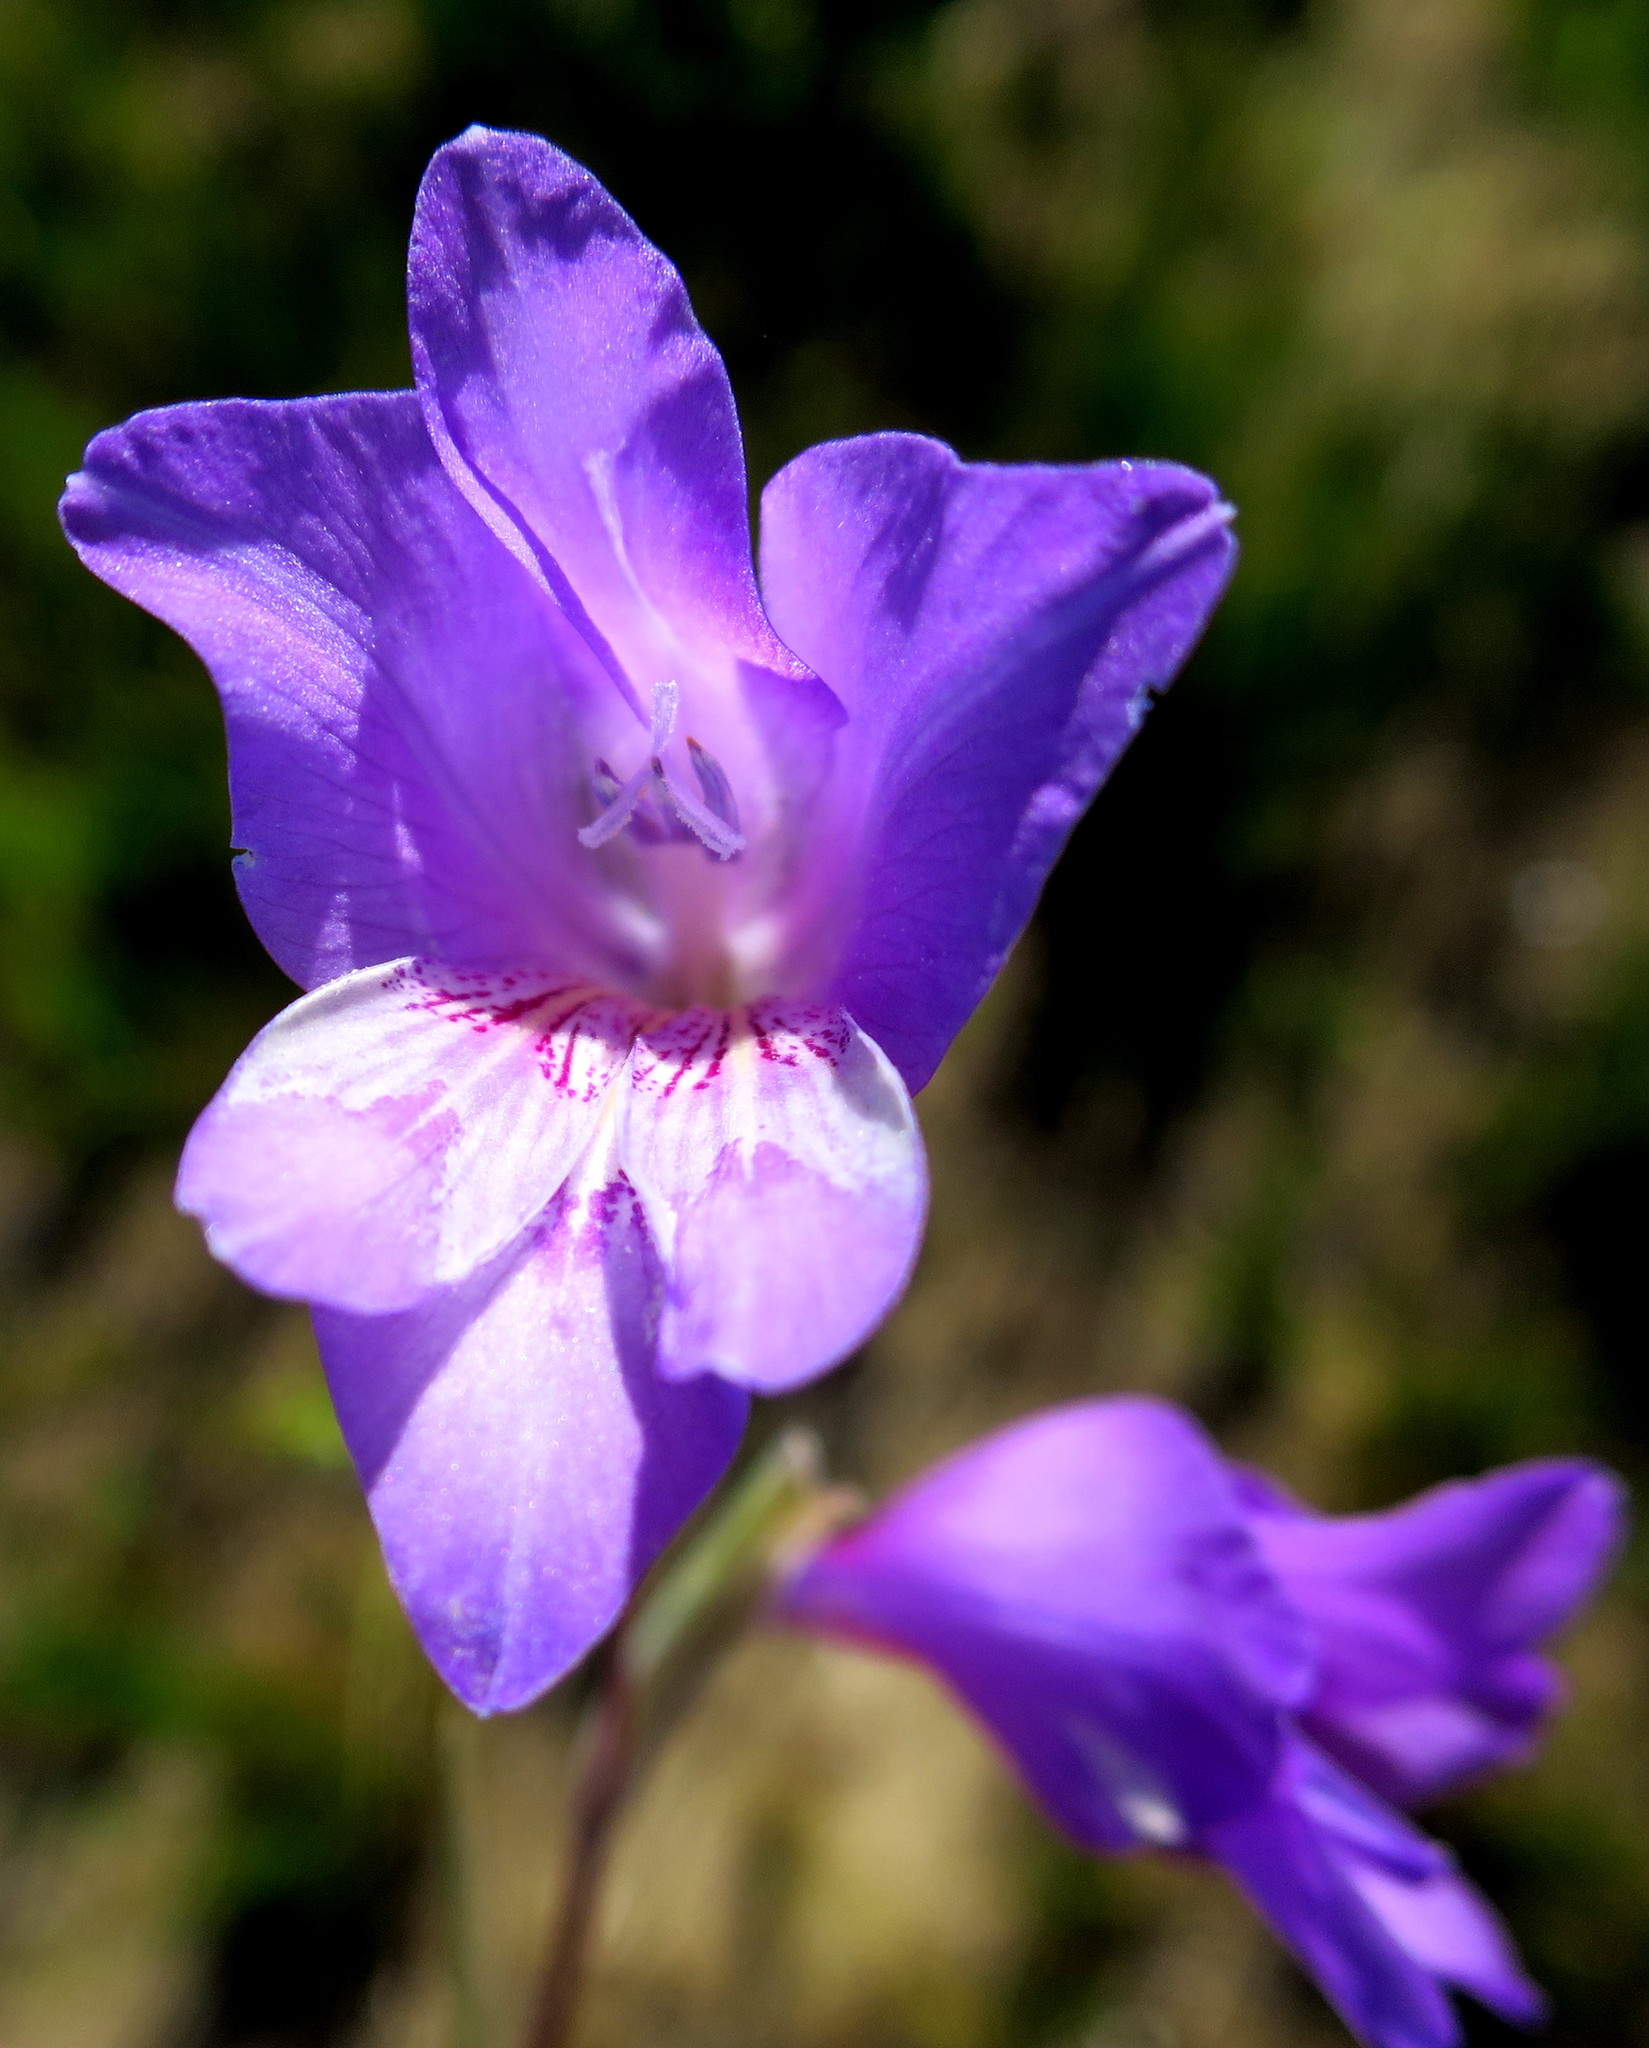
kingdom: Plantae
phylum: Tracheophyta
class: Liliopsida
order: Asparagales
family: Iridaceae
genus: Gladiolus
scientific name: Gladiolus carinatus
